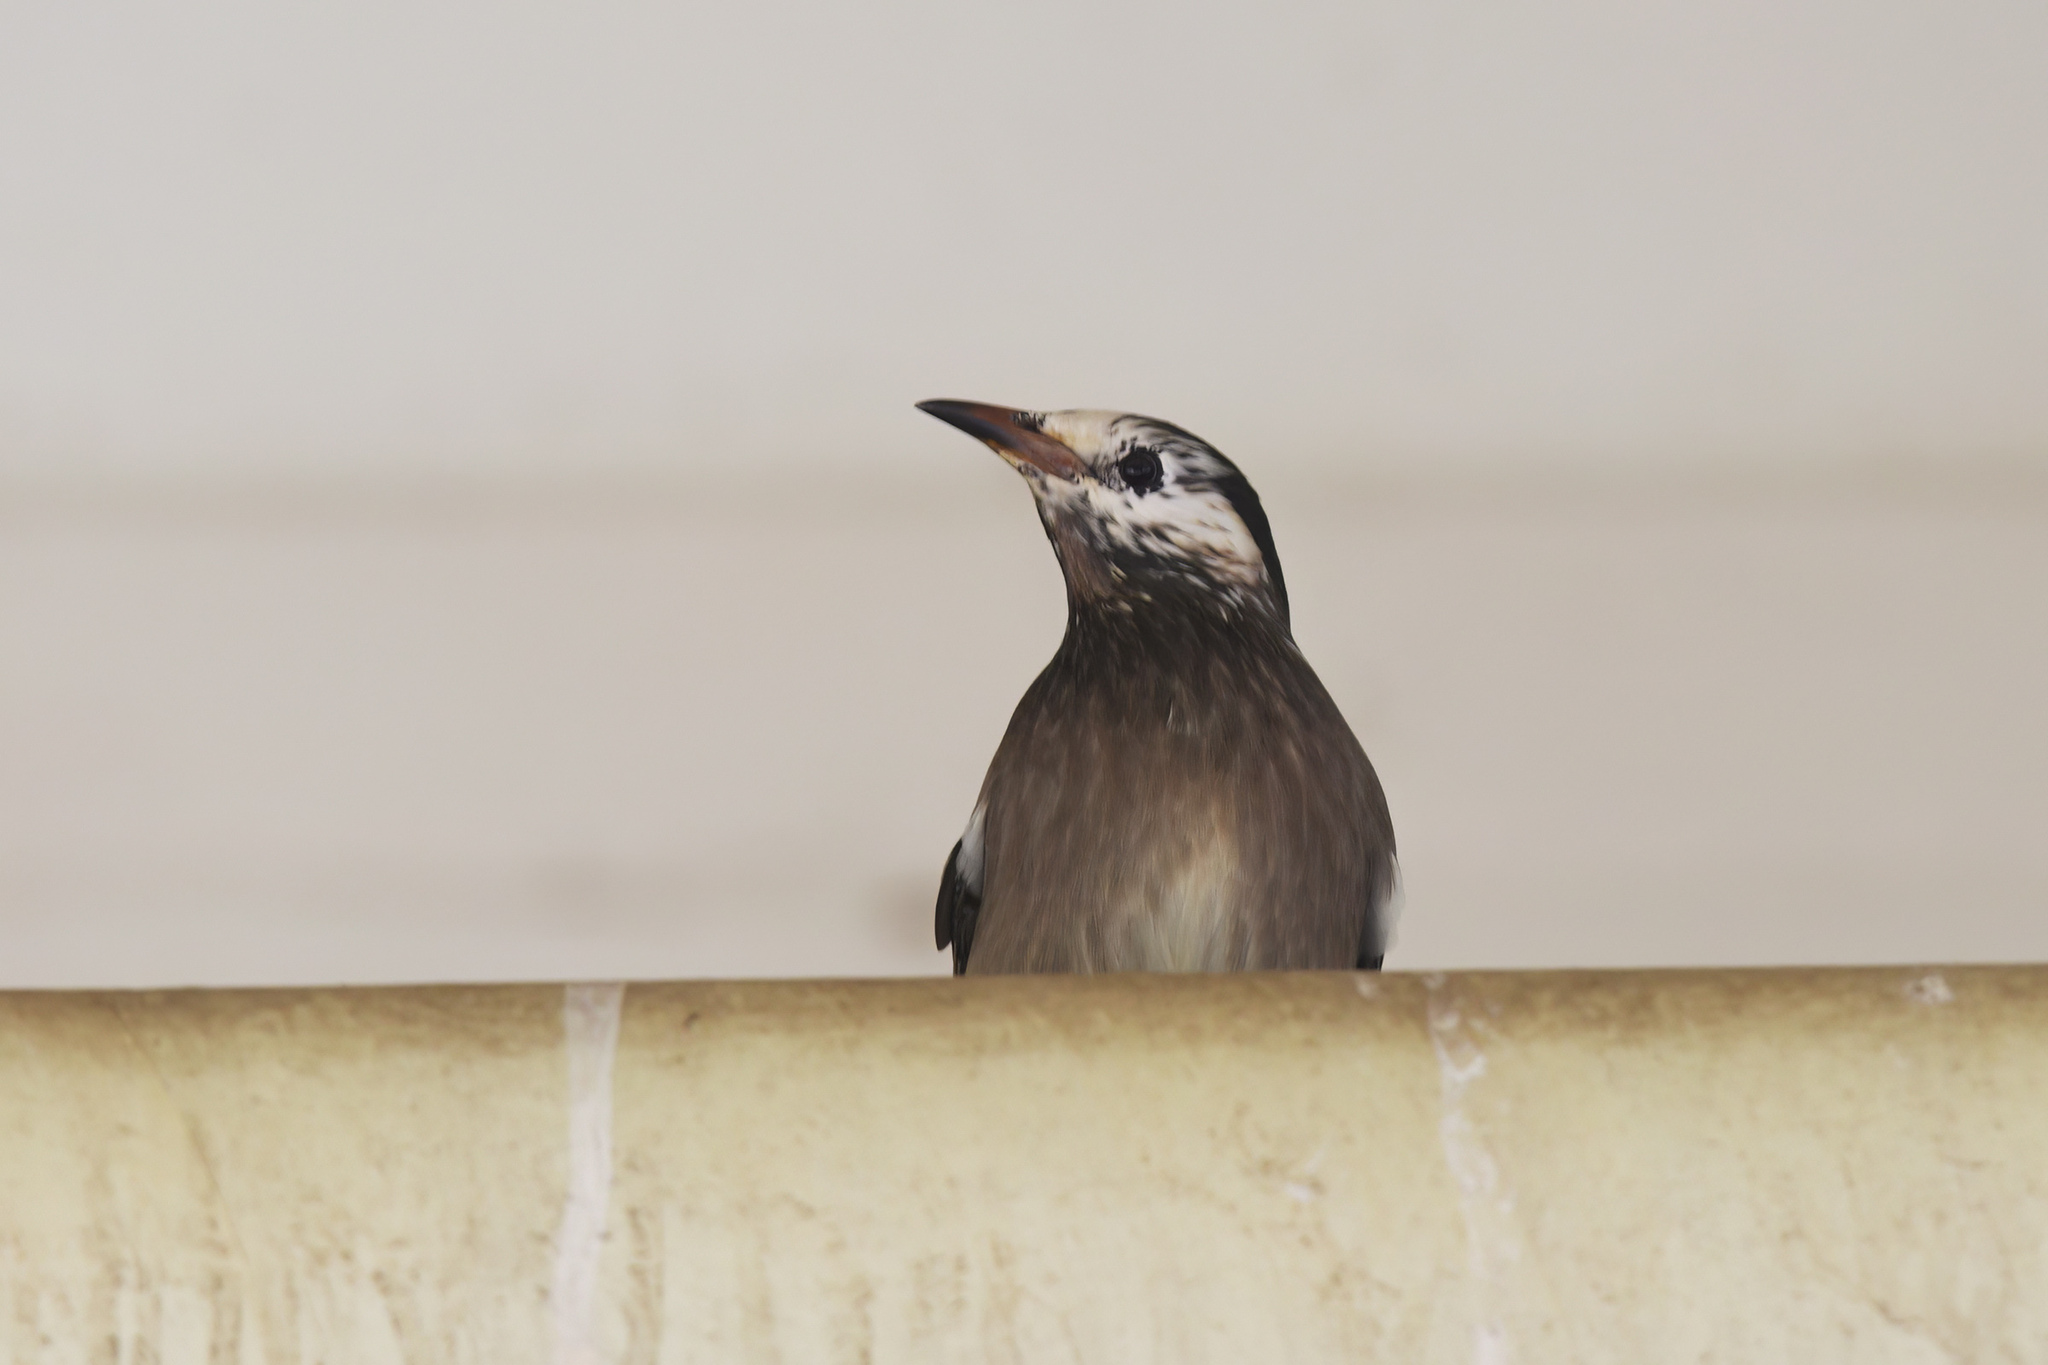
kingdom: Animalia
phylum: Chordata
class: Aves
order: Passeriformes
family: Sturnidae
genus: Spodiopsar
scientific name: Spodiopsar cineraceus
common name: White-cheeked starling
